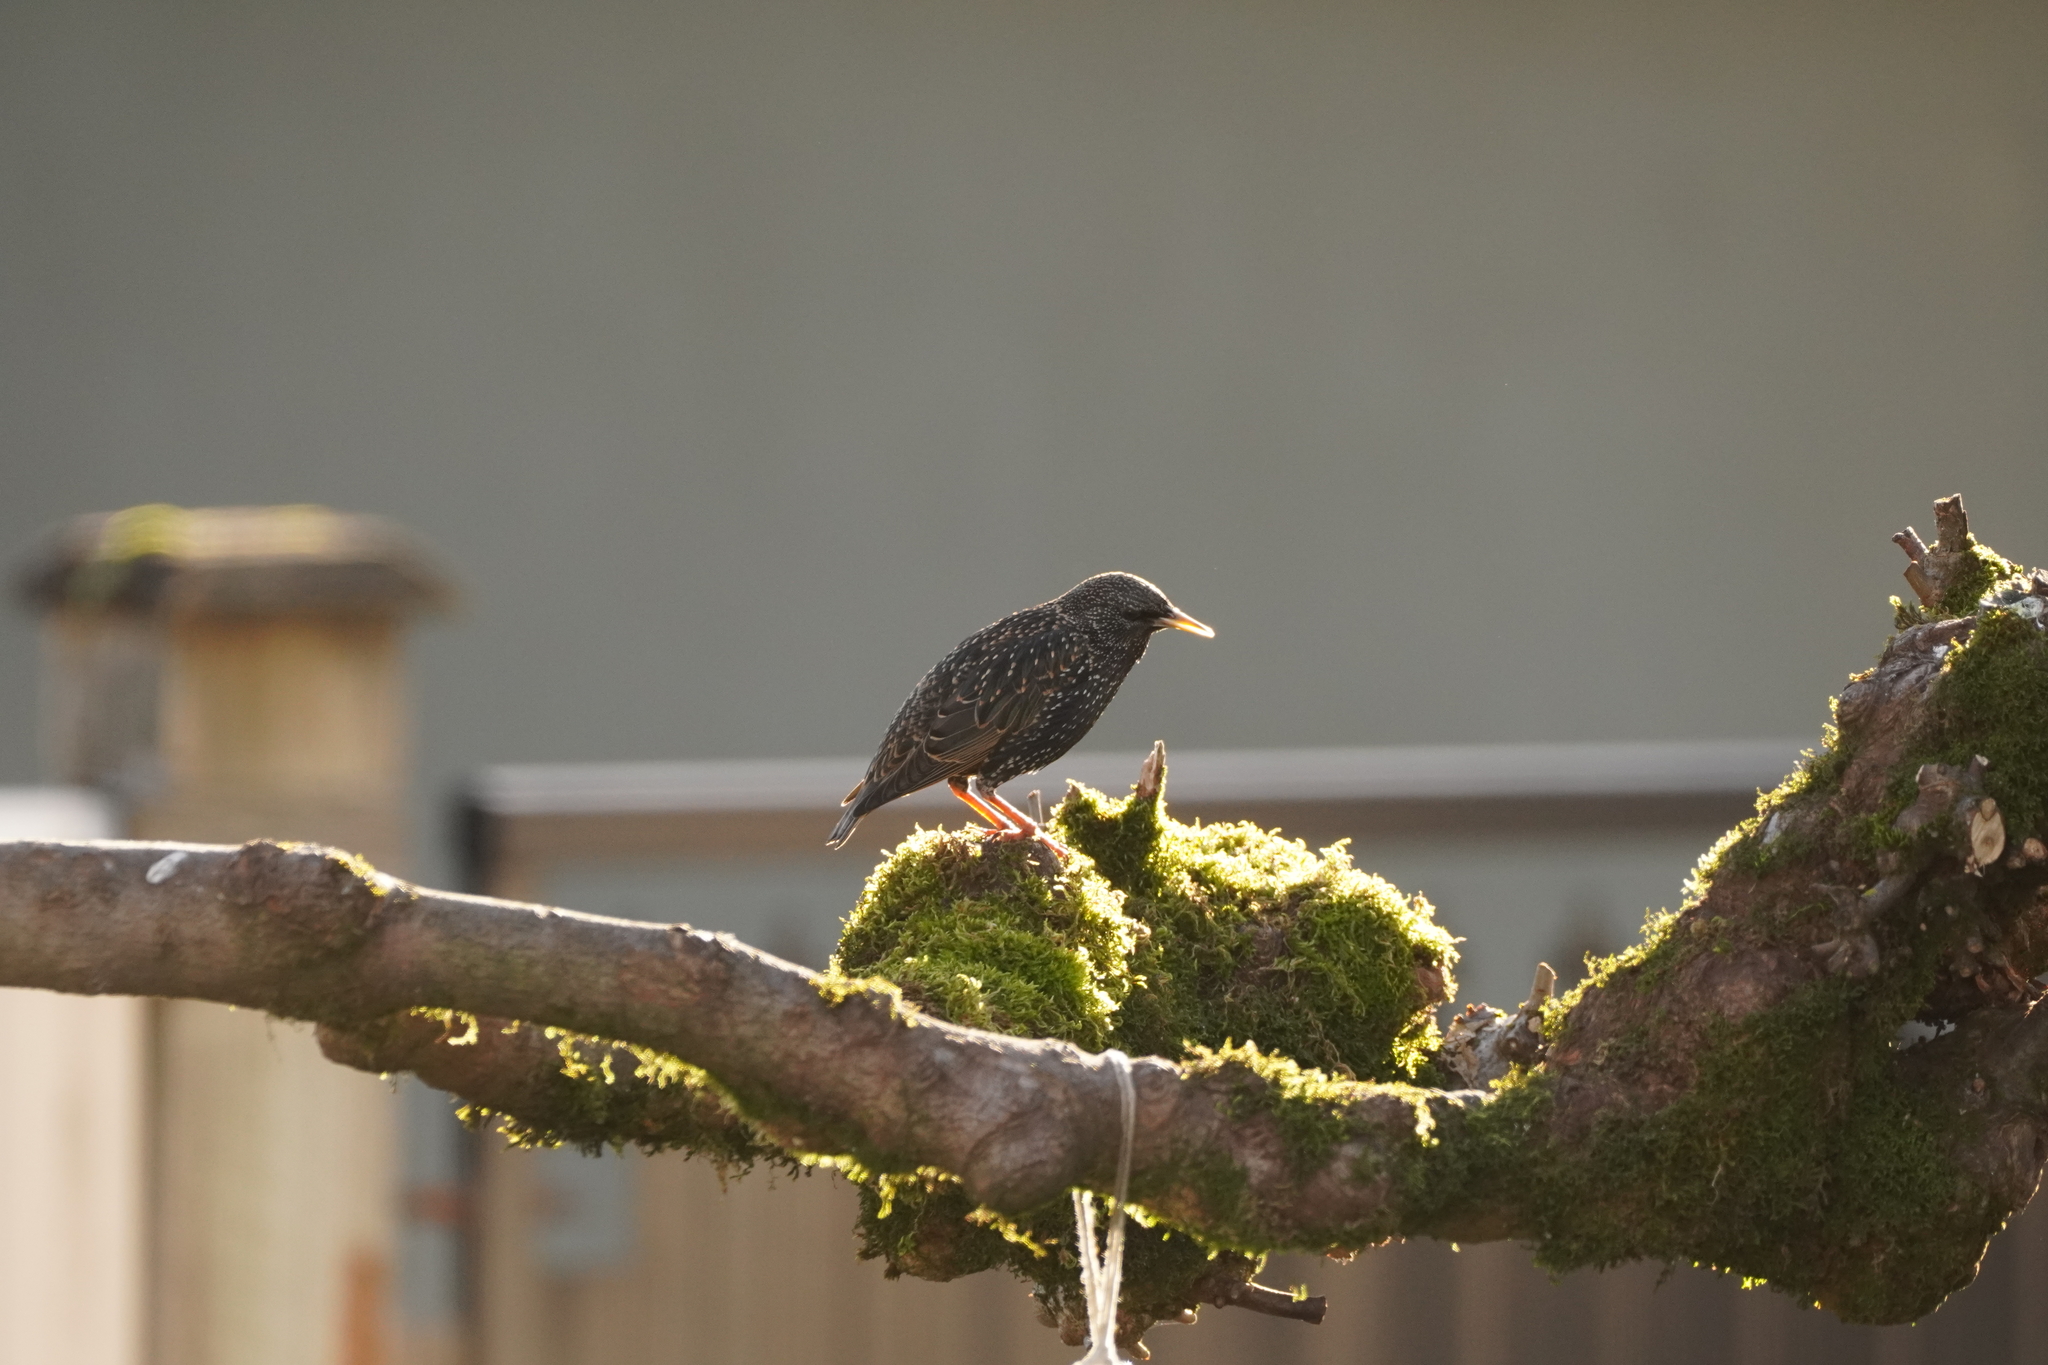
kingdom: Animalia
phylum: Chordata
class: Aves
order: Passeriformes
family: Sturnidae
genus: Sturnus
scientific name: Sturnus vulgaris
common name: Common starling
